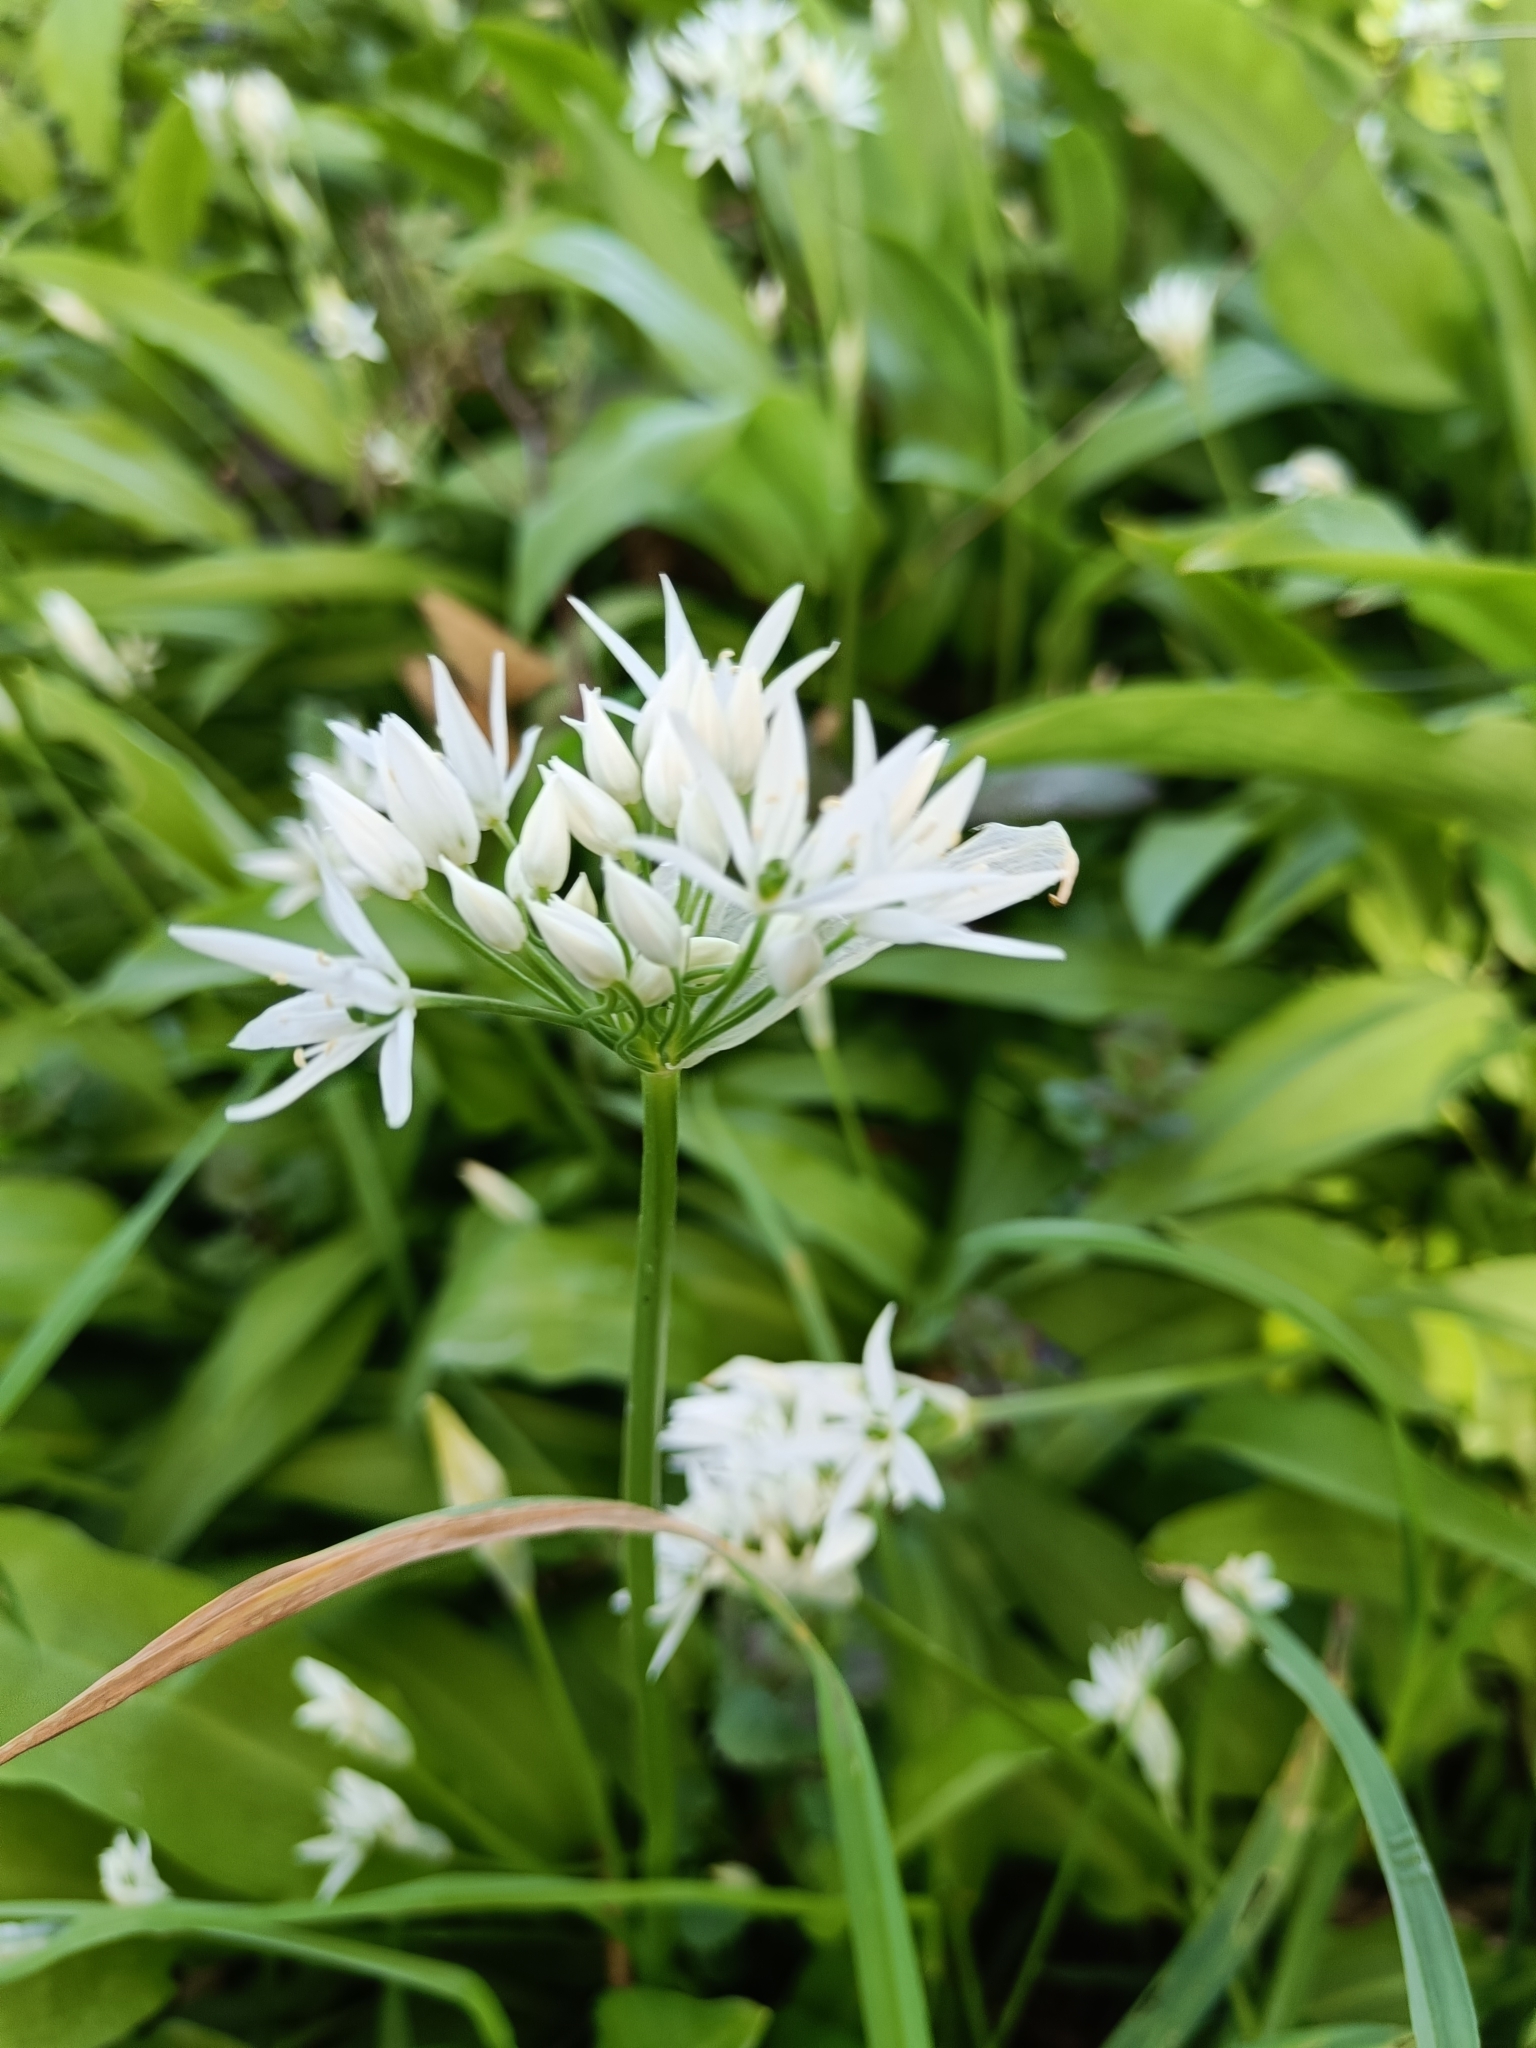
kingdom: Plantae
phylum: Tracheophyta
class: Liliopsida
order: Asparagales
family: Amaryllidaceae
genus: Allium
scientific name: Allium ursinum
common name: Ramsons
